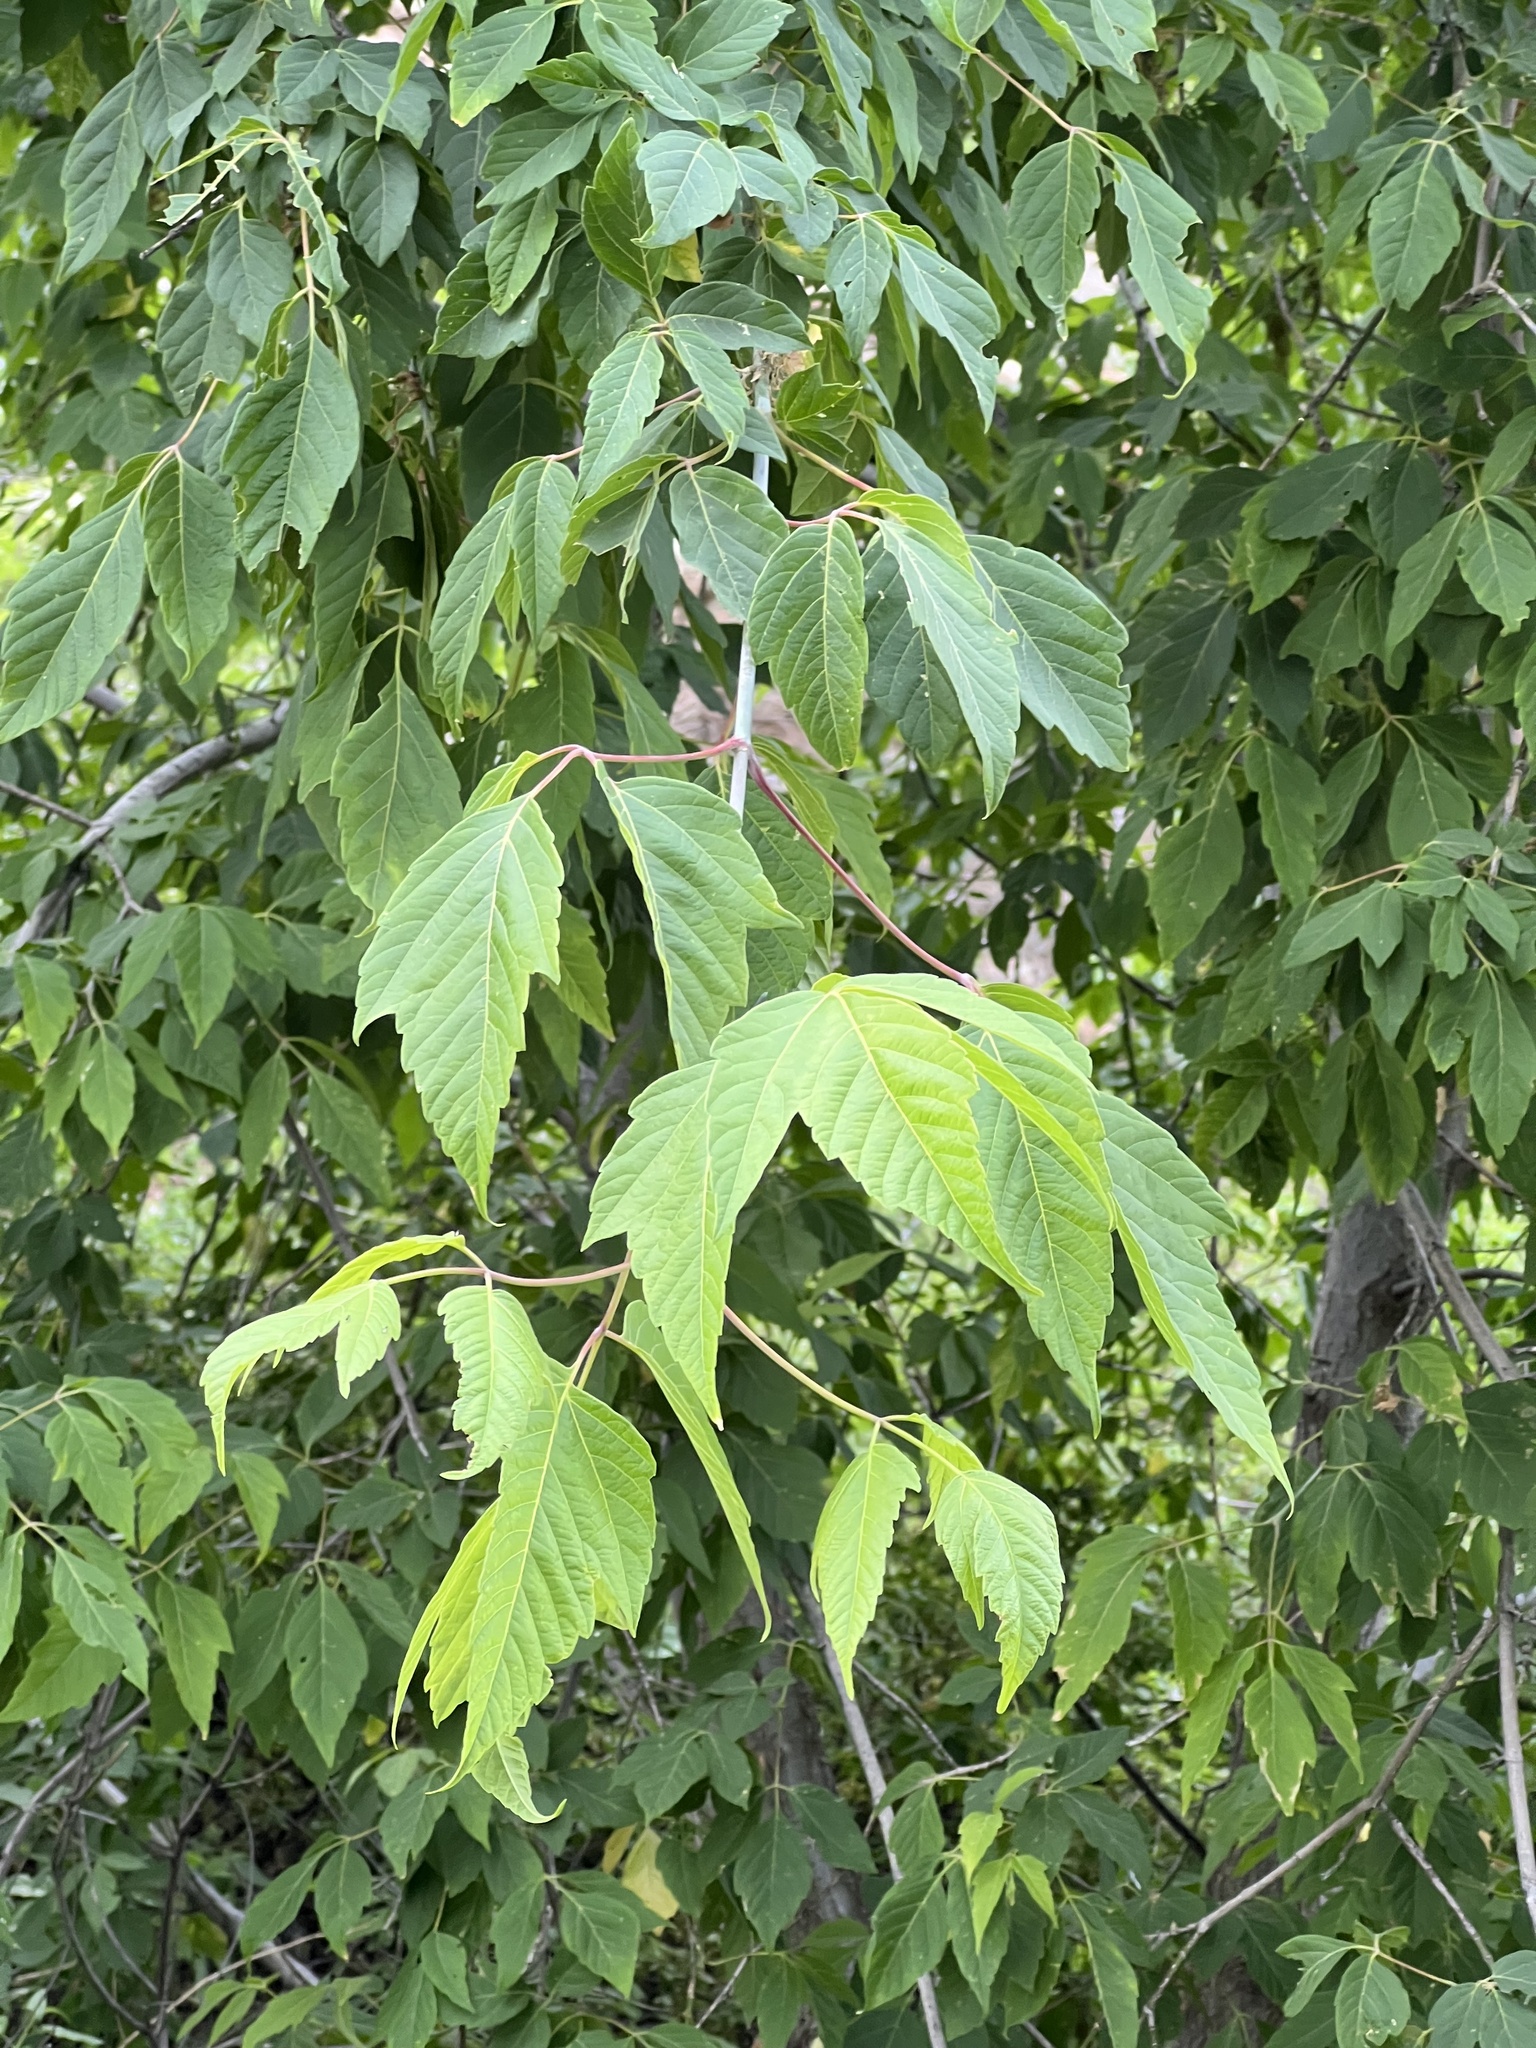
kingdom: Plantae
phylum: Tracheophyta
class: Magnoliopsida
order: Sapindales
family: Sapindaceae
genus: Acer
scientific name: Acer negundo
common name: Ashleaf maple
